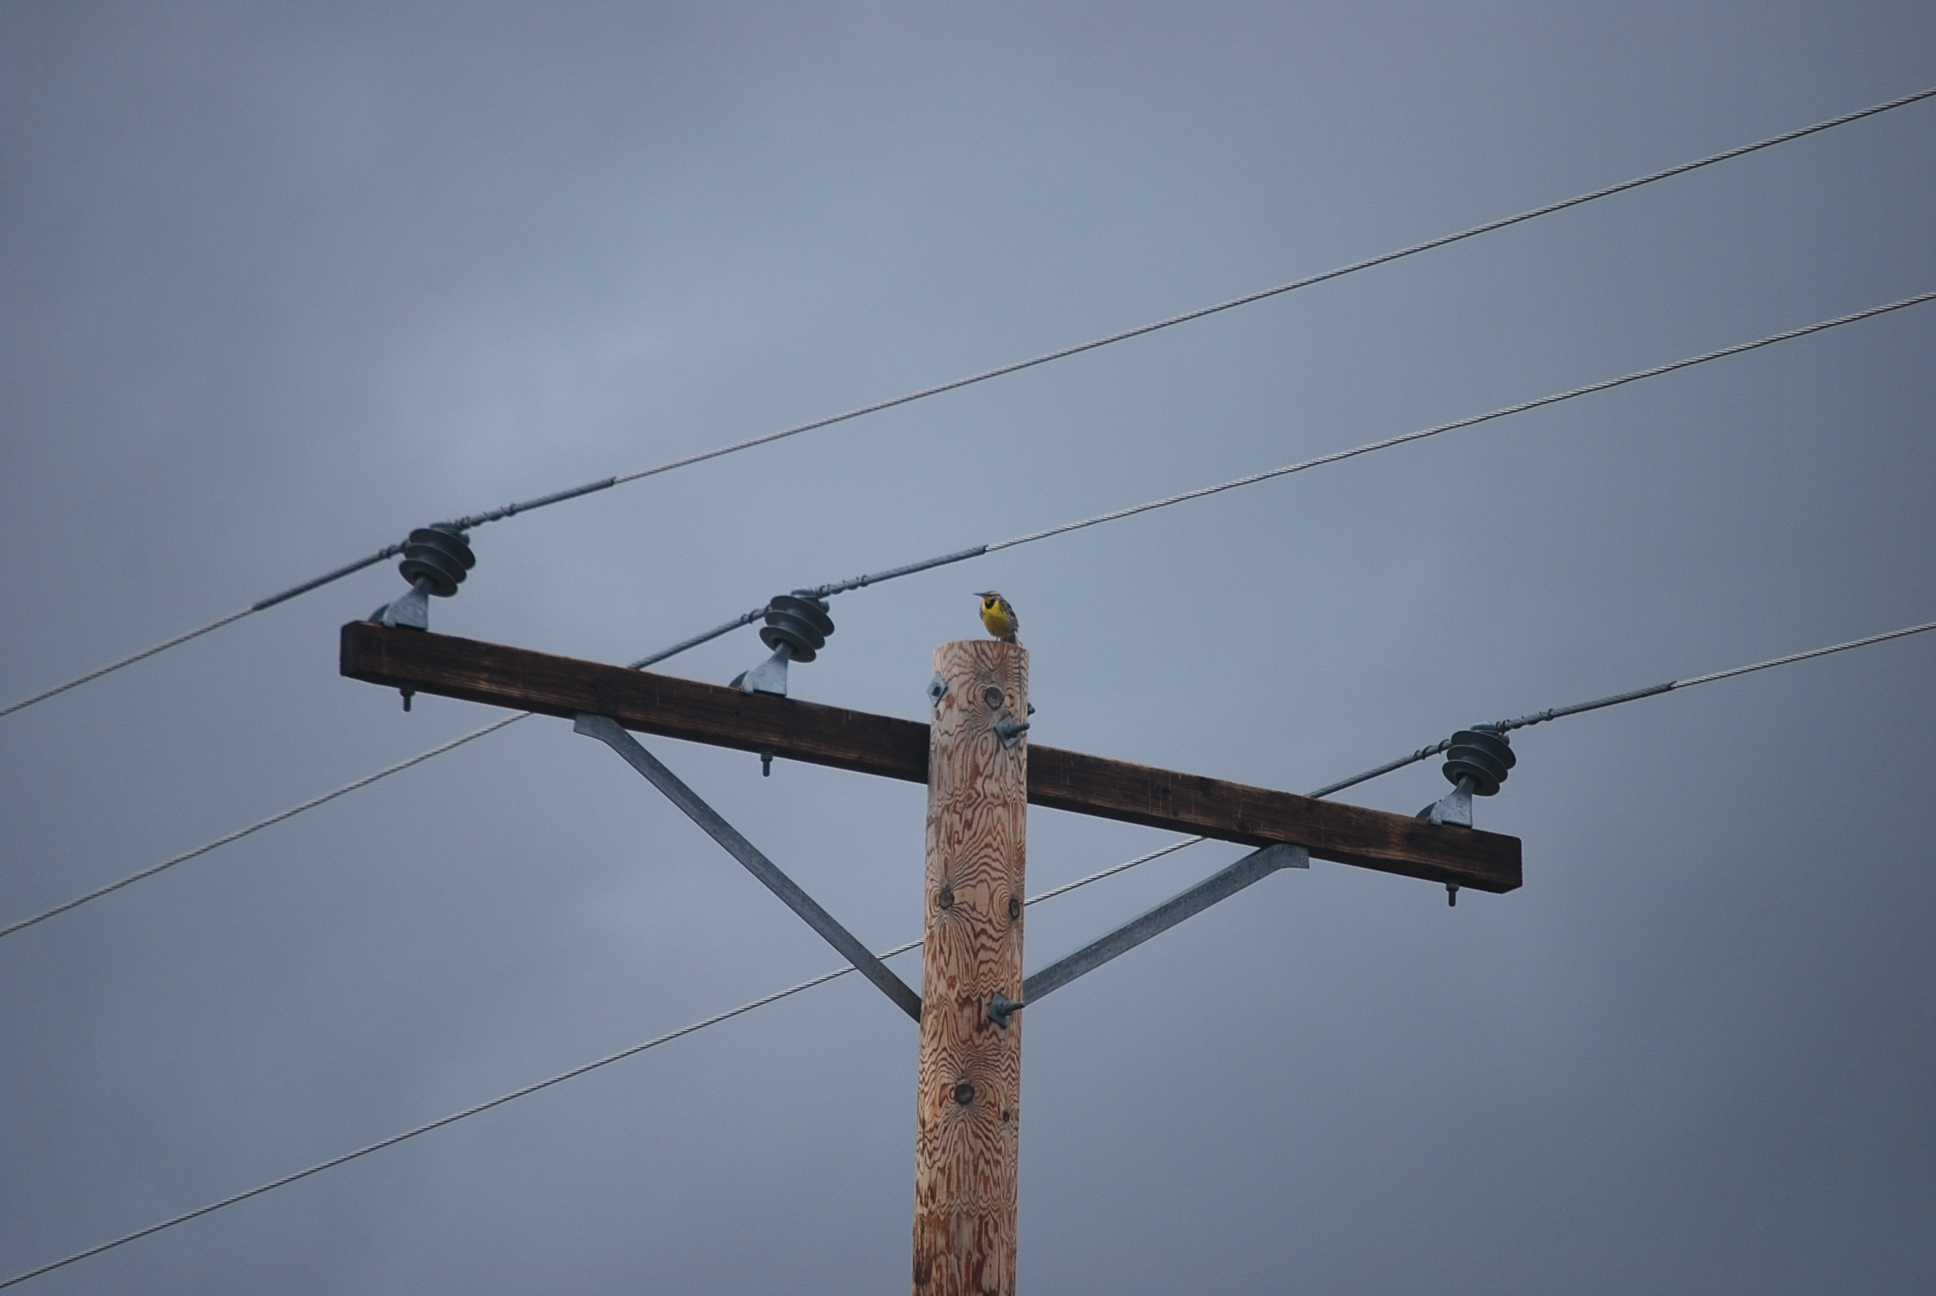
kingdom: Animalia
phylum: Chordata
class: Aves
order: Passeriformes
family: Icteridae
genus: Sturnella
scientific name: Sturnella neglecta
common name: Western meadowlark
